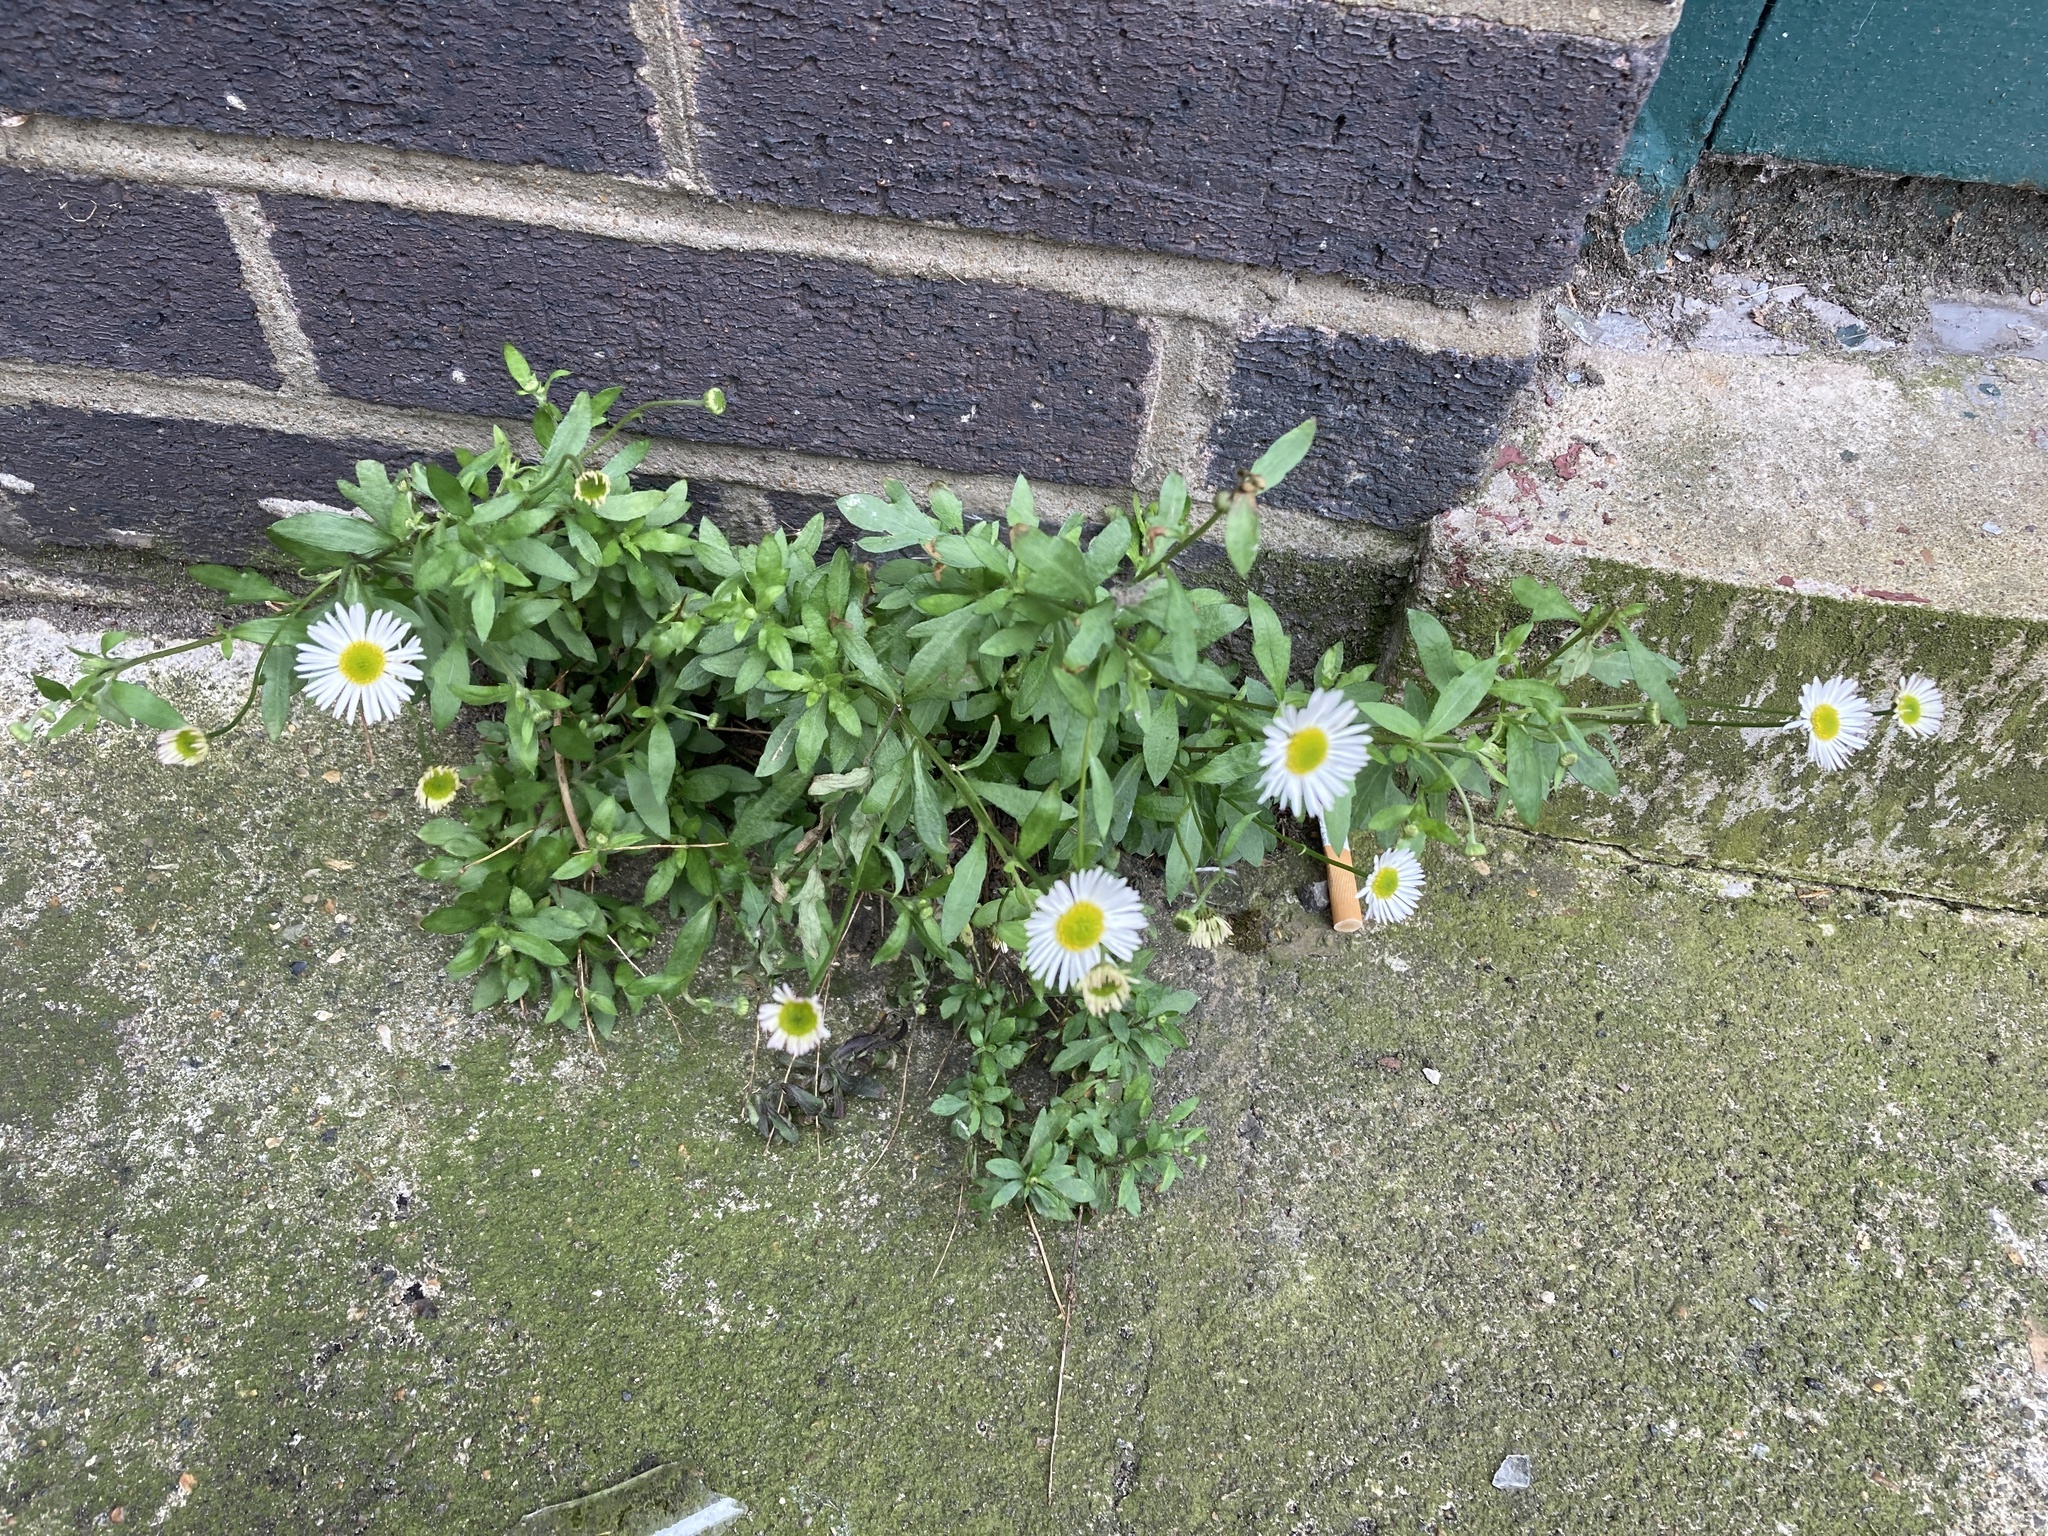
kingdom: Plantae
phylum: Tracheophyta
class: Magnoliopsida
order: Asterales
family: Asteraceae
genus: Erigeron
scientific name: Erigeron karvinskianus
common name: Mexican fleabane
